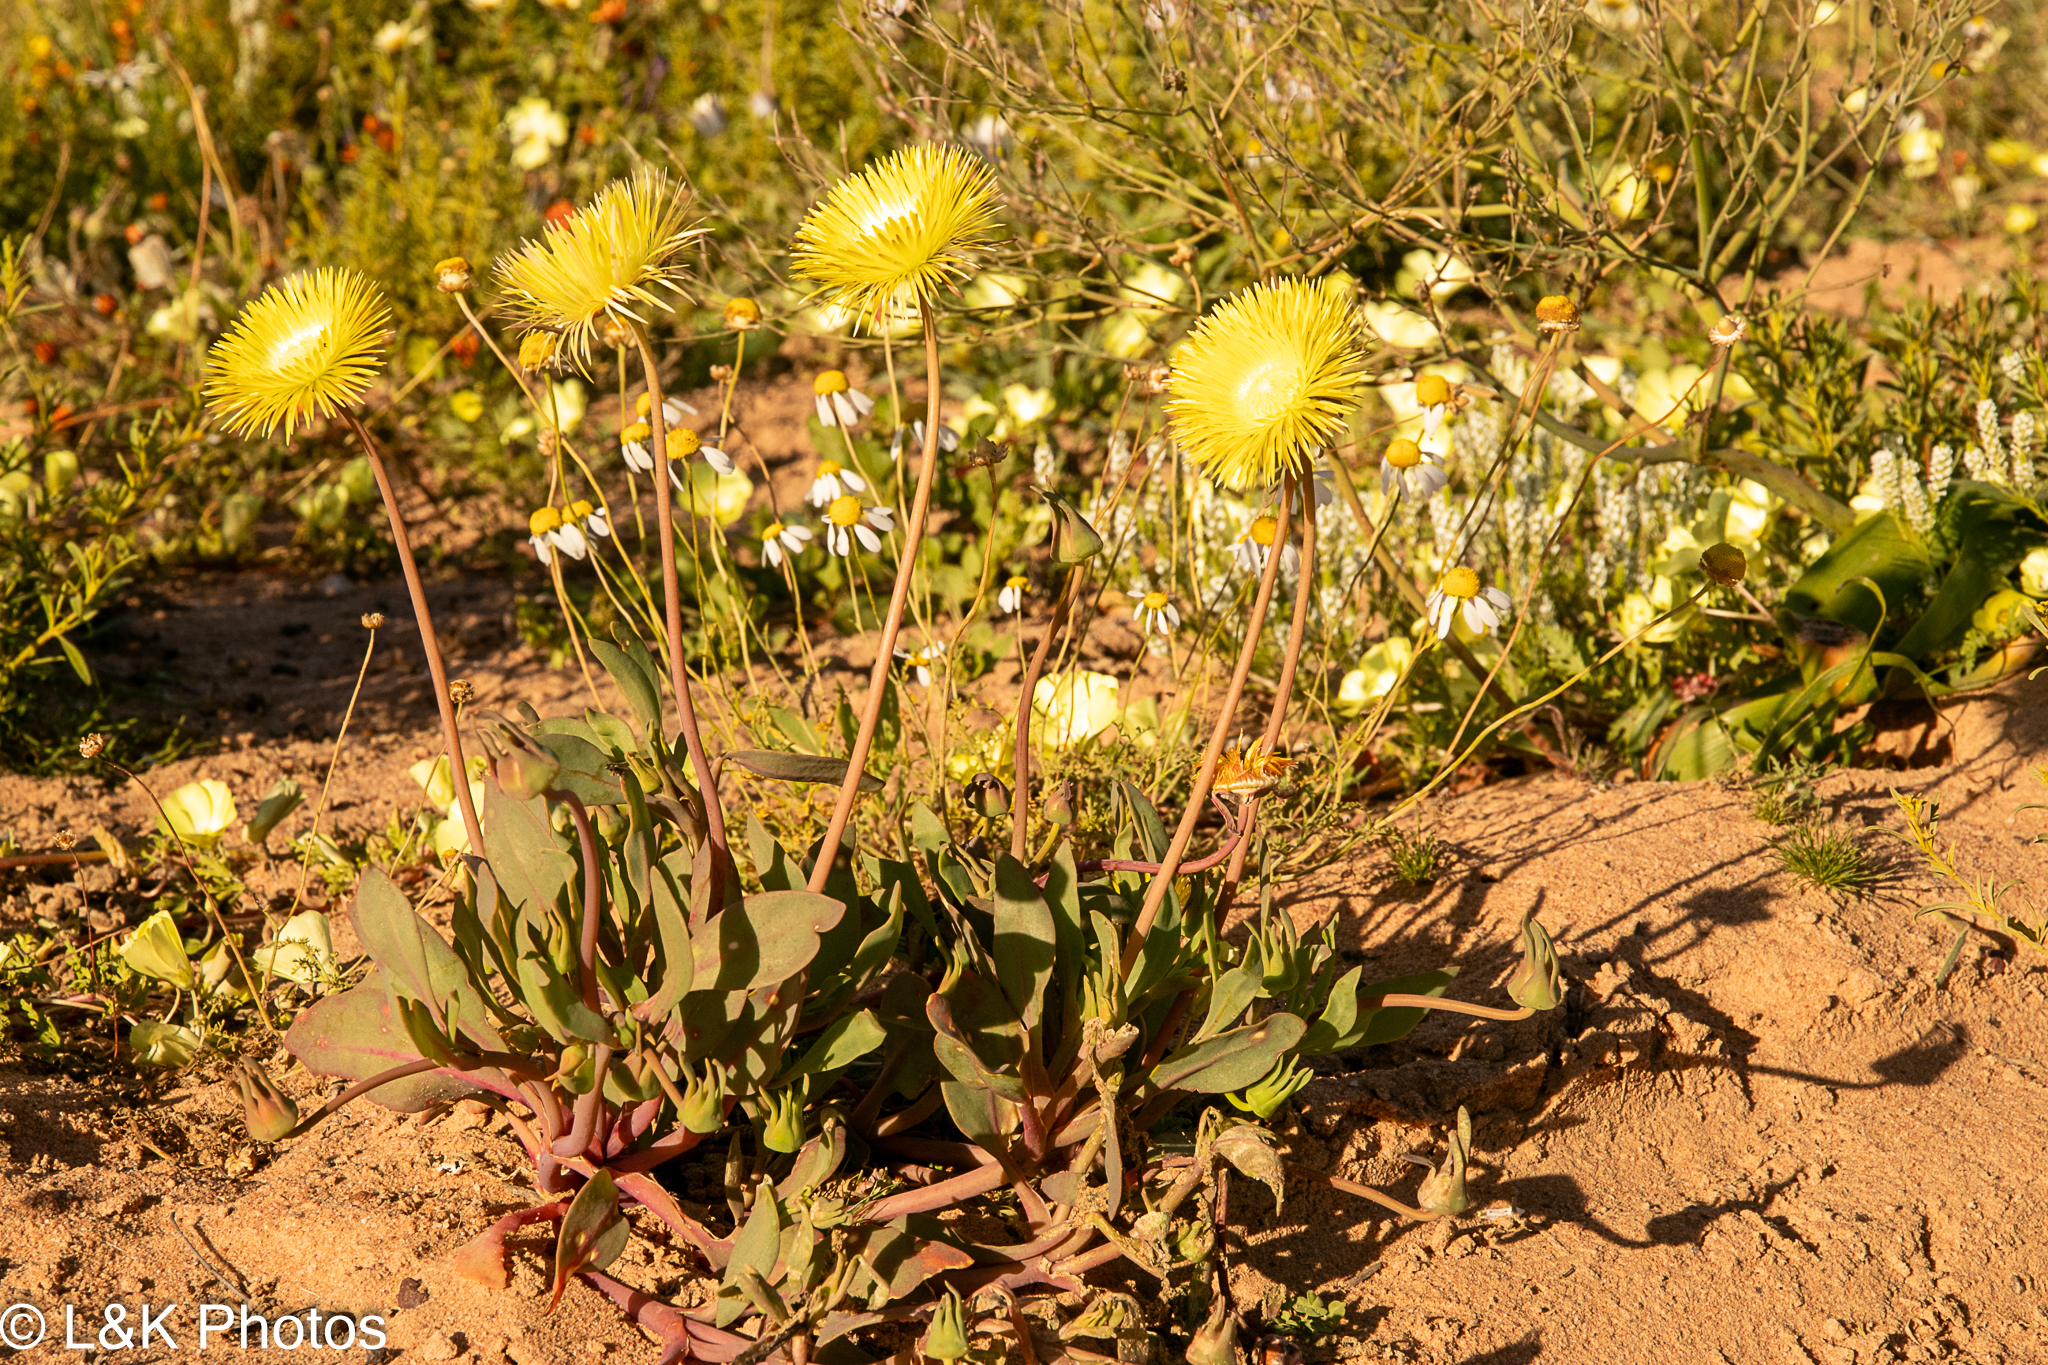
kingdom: Plantae
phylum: Tracheophyta
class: Magnoliopsida
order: Caryophyllales
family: Aizoaceae
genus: Apatesia
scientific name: Apatesia helianthoides
